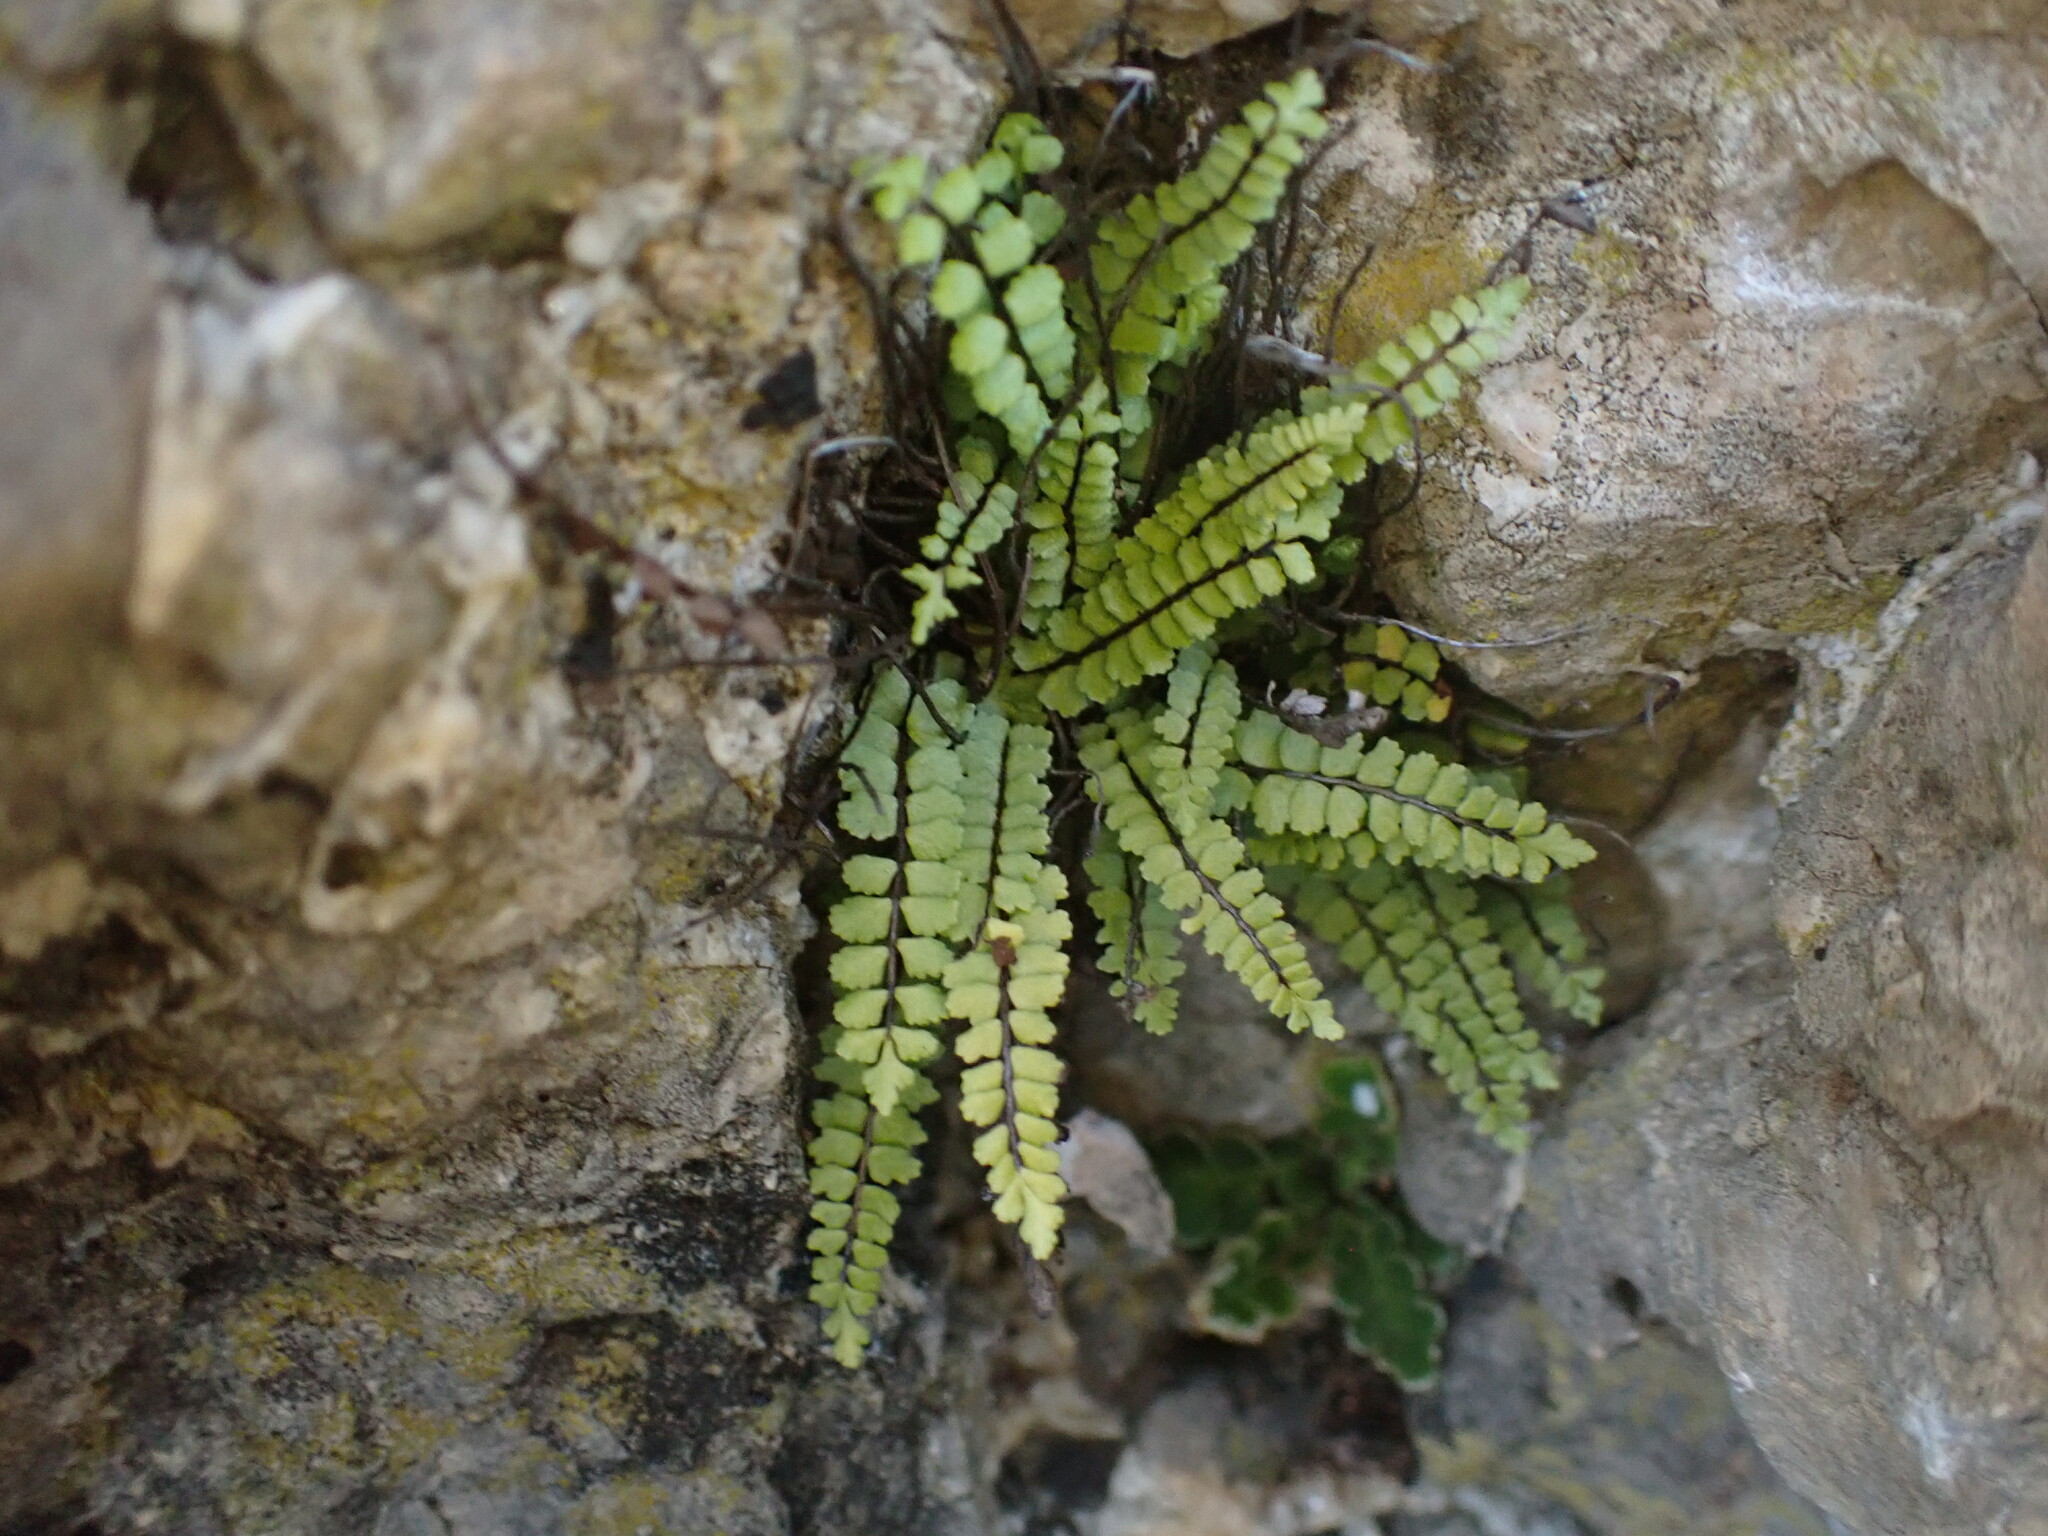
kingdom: Plantae
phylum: Tracheophyta
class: Polypodiopsida
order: Polypodiales
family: Aspleniaceae
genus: Asplenium
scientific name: Asplenium trichomanes
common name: Maidenhair spleenwort
